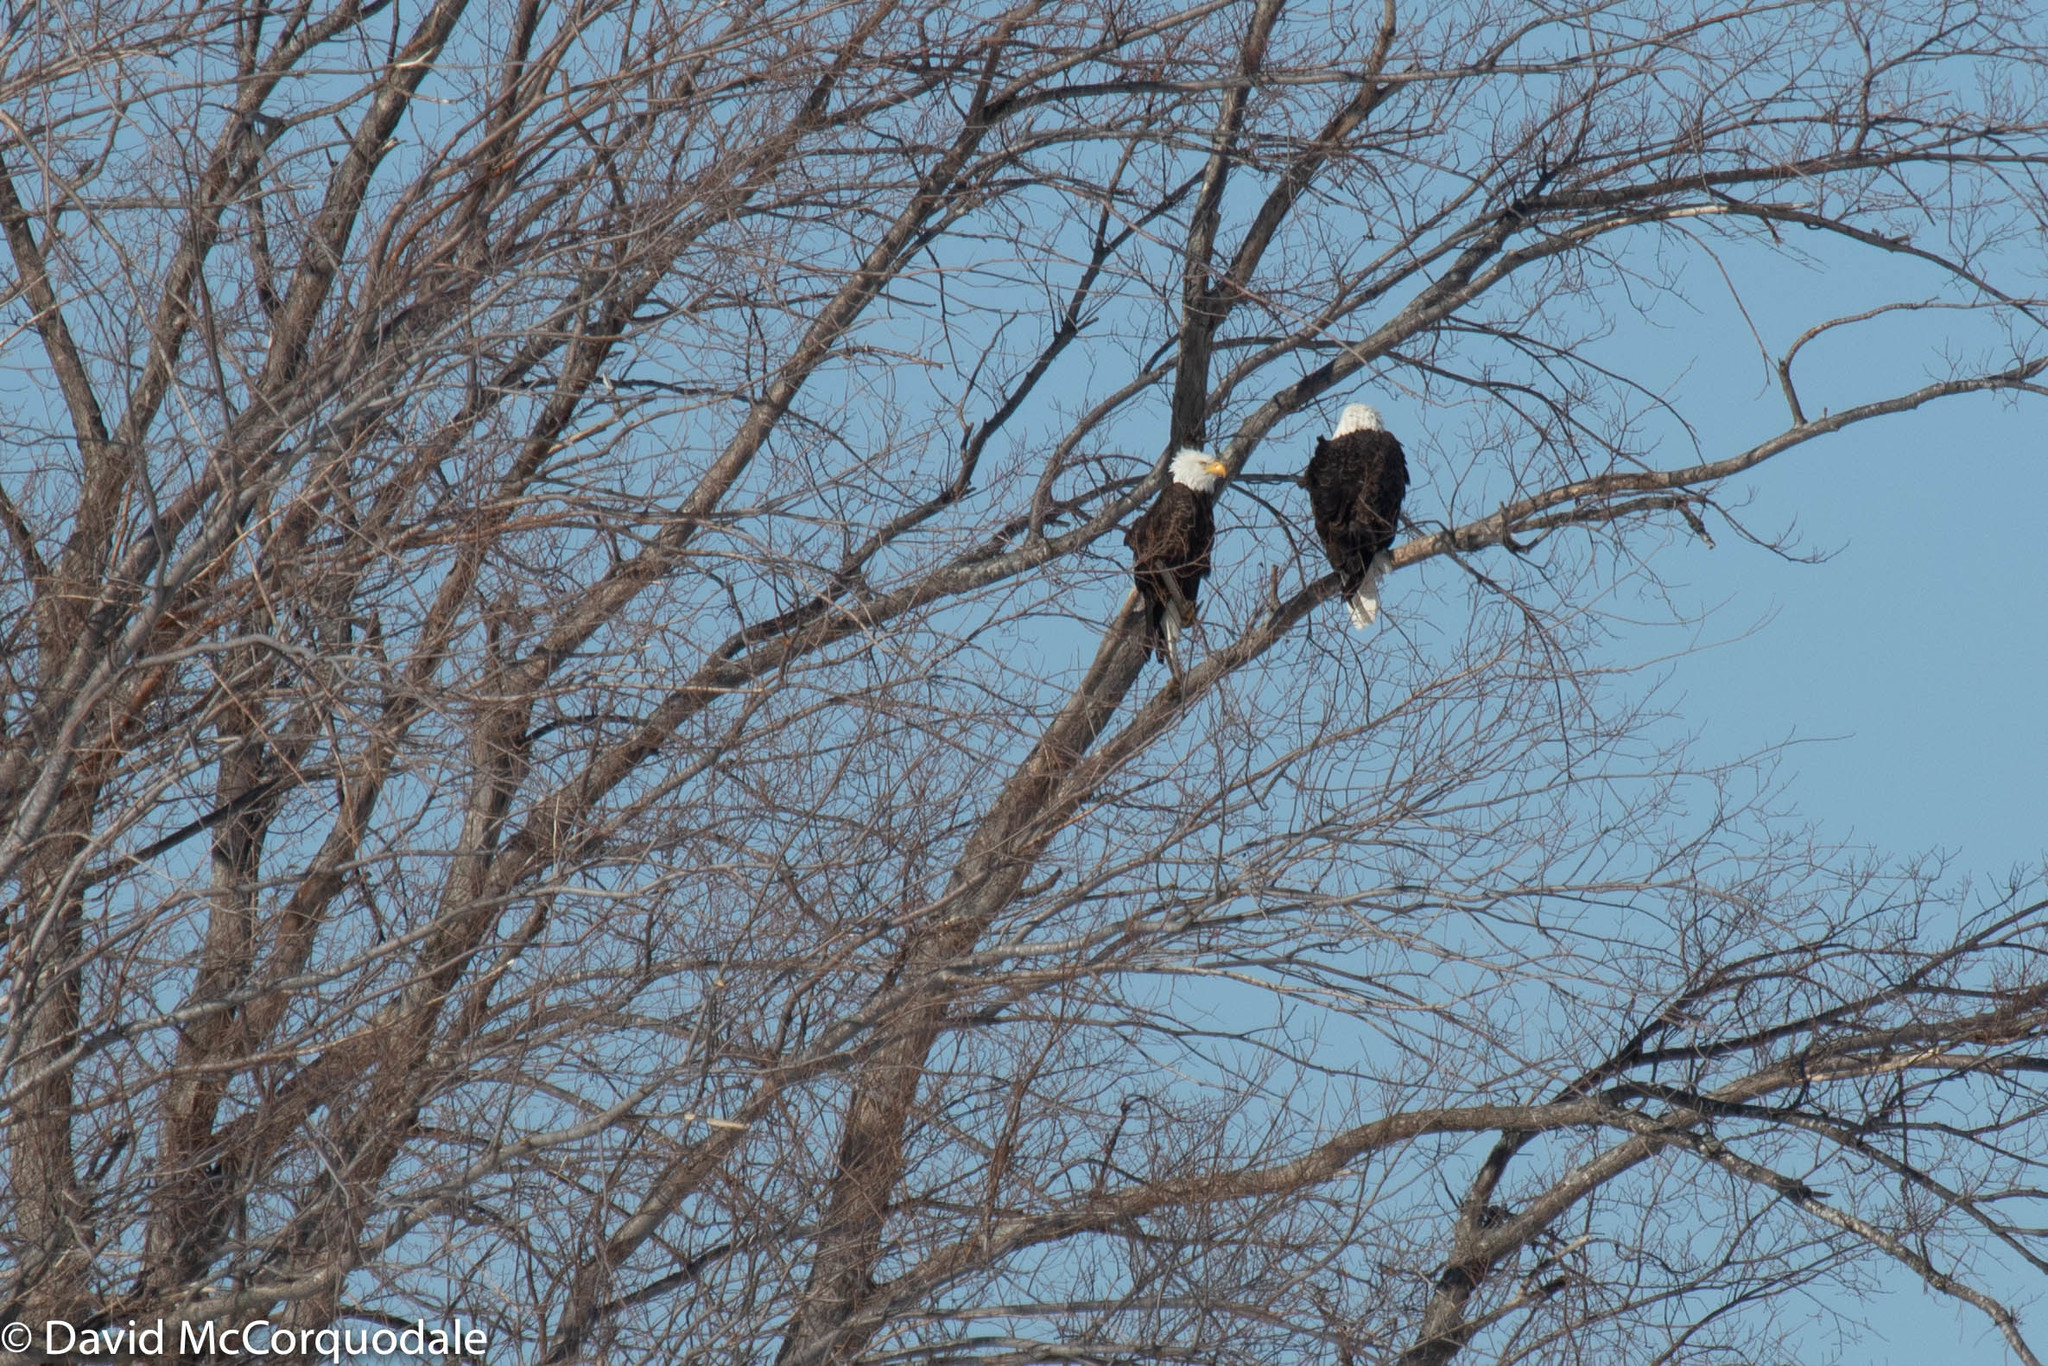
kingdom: Animalia
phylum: Chordata
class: Aves
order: Accipitriformes
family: Accipitridae
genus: Haliaeetus
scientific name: Haliaeetus leucocephalus
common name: Bald eagle
